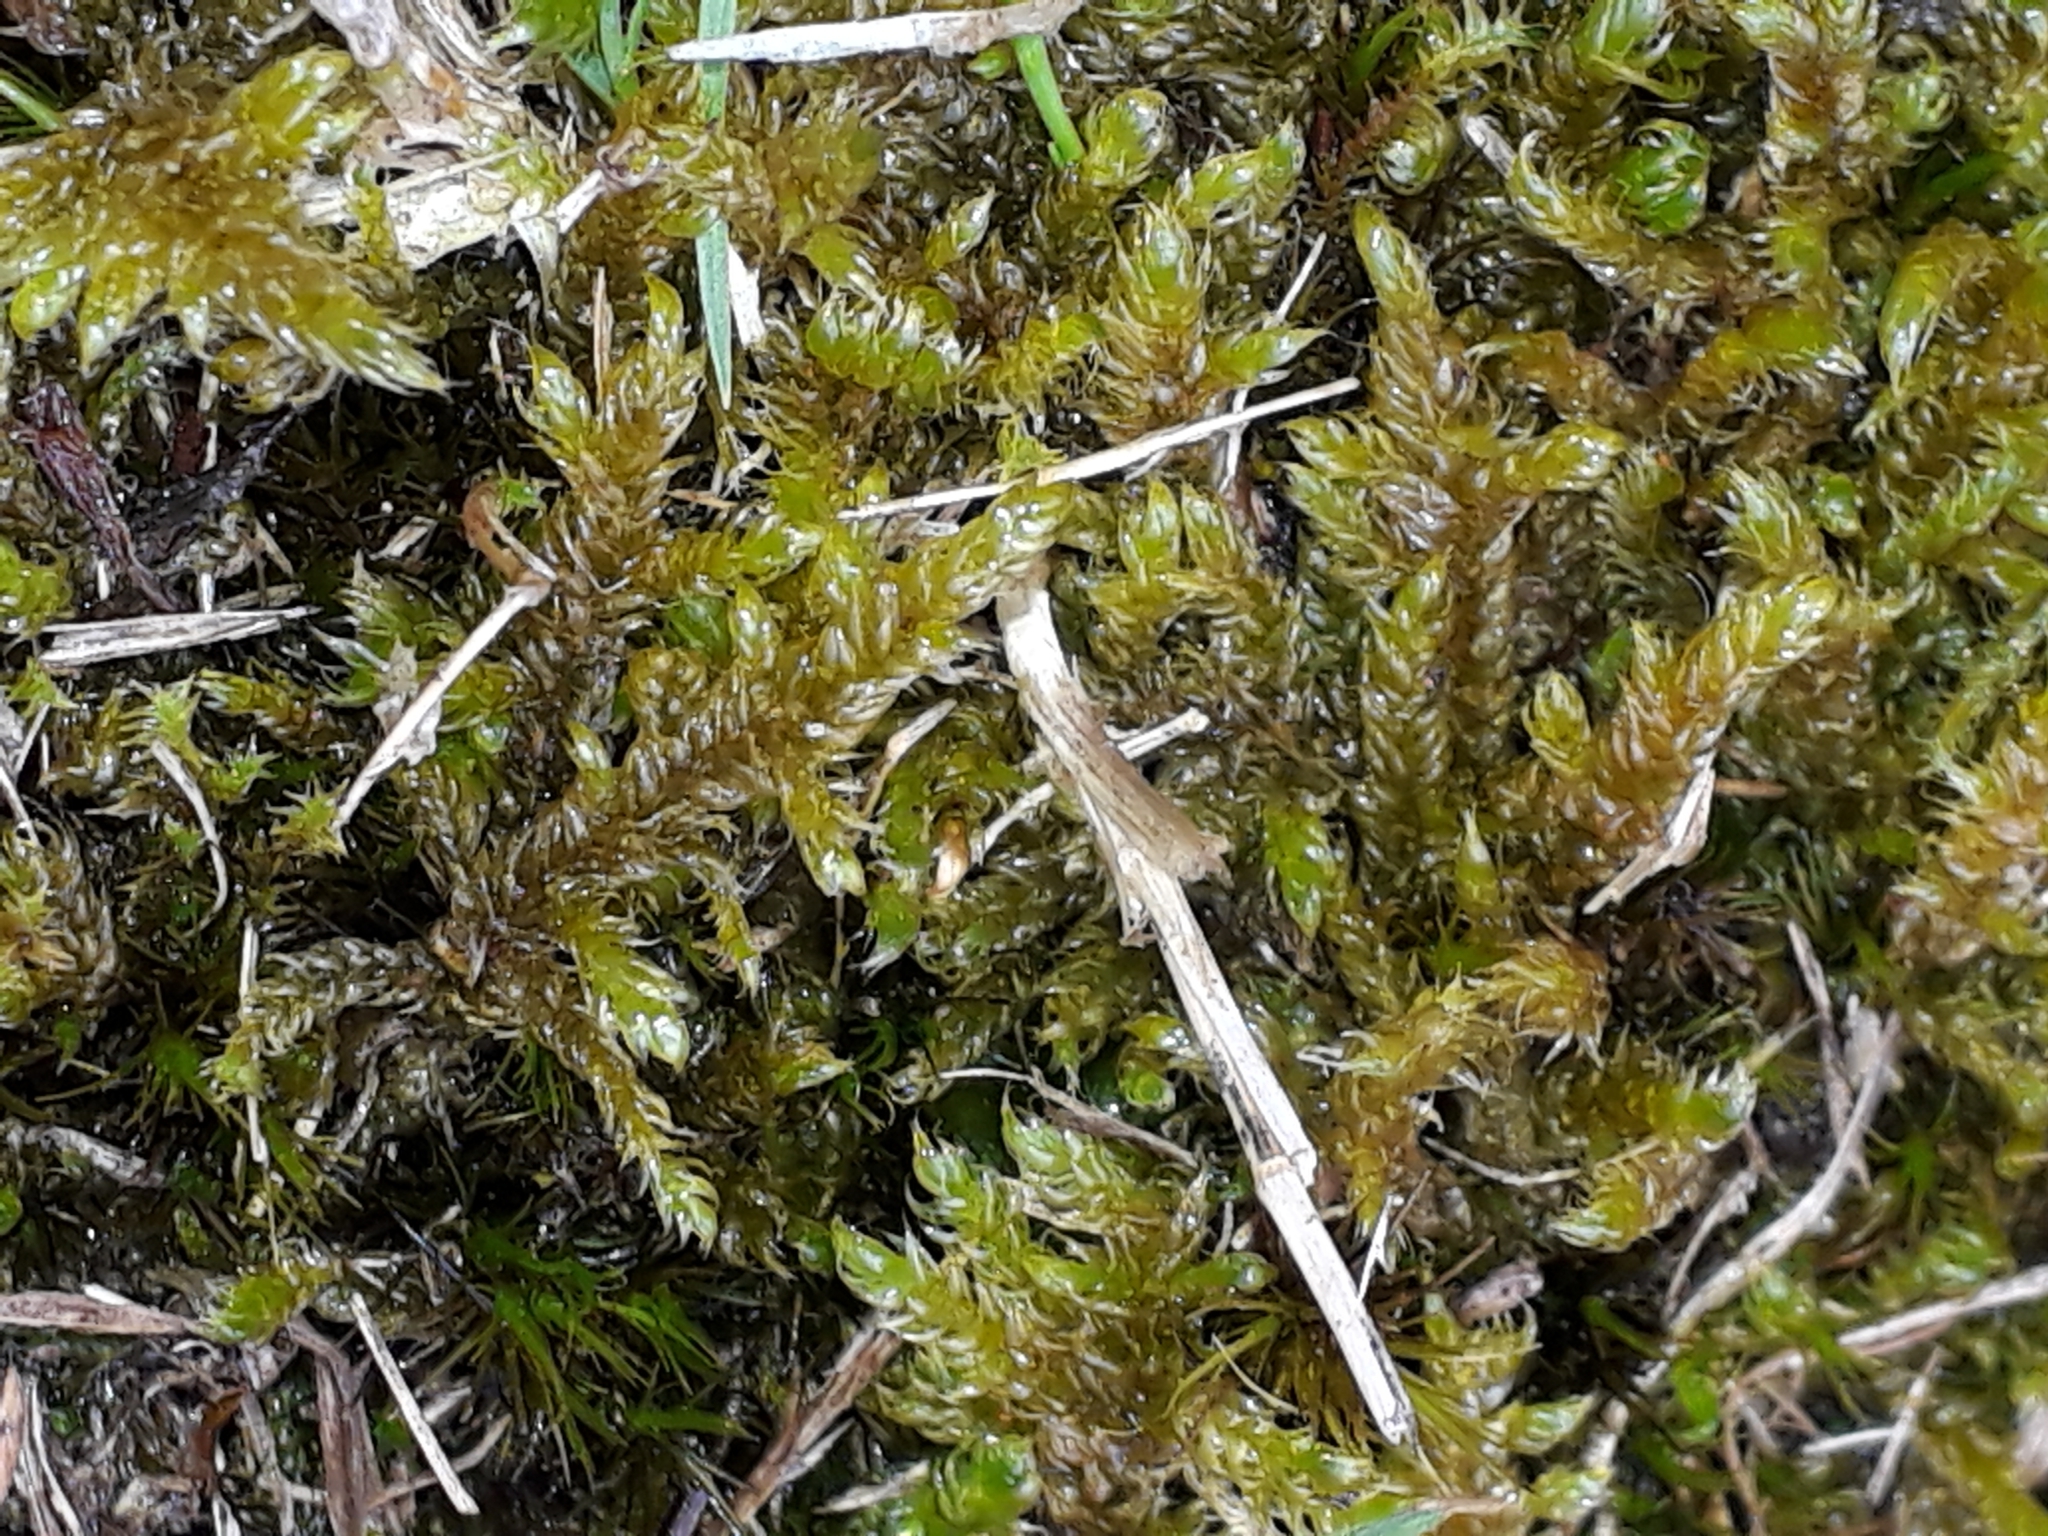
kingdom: Plantae
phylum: Bryophyta
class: Bryopsida
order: Hypnales
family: Hypnaceae
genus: Hypnum
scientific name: Hypnum cupressiforme
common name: Cypress-leaved plait-moss
